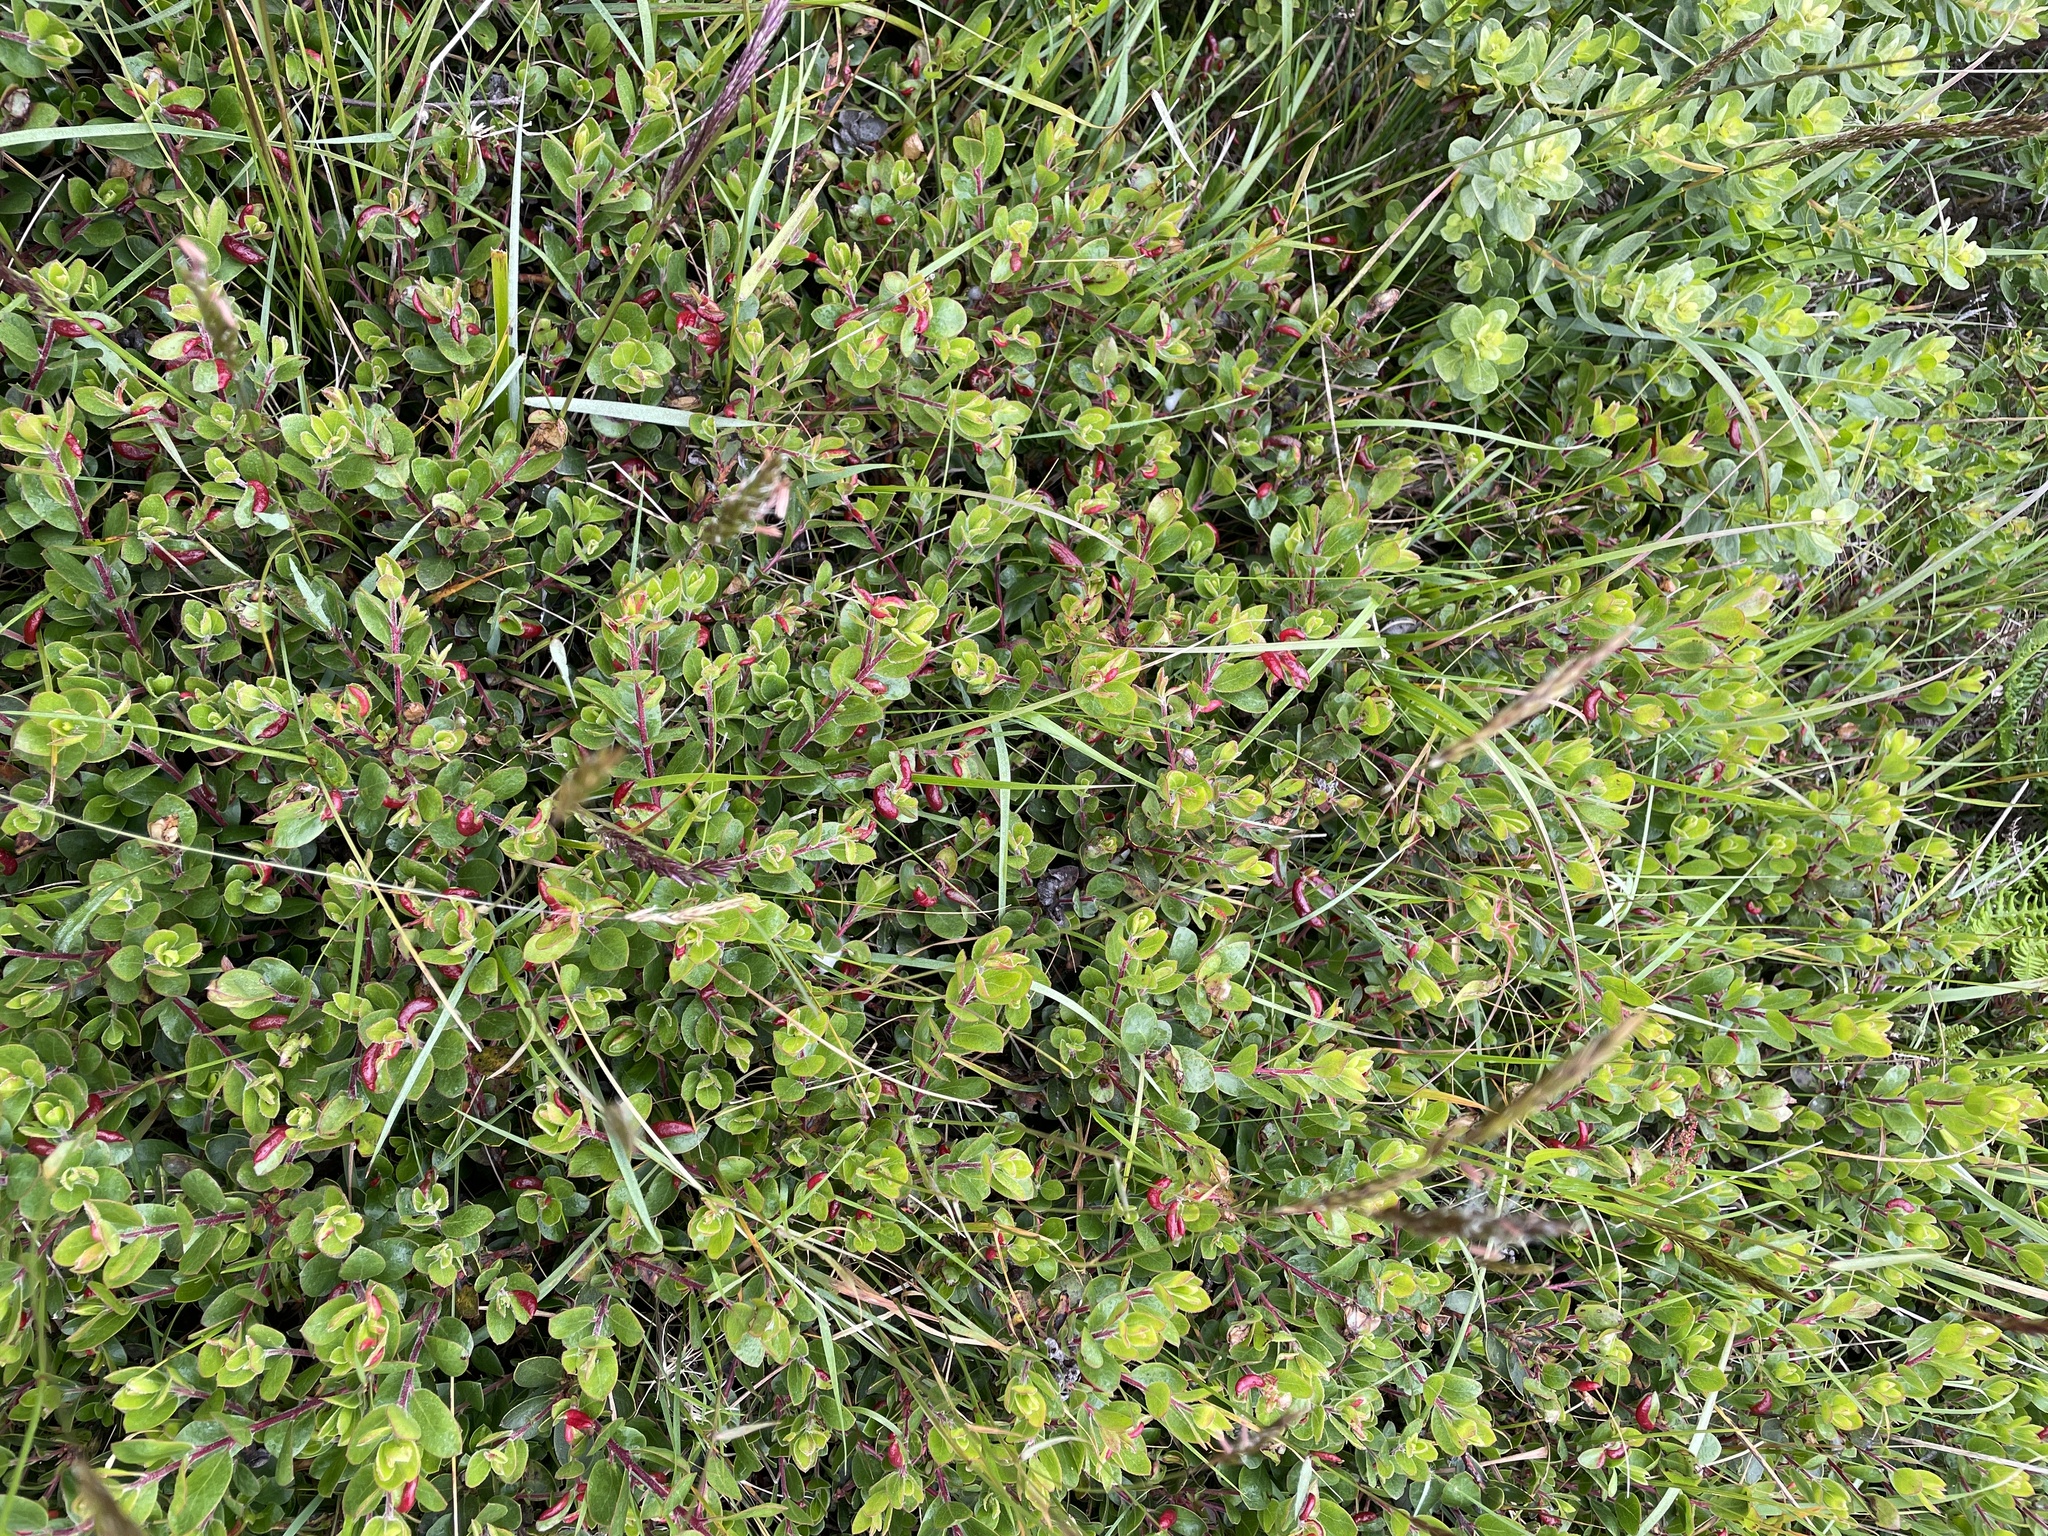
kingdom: Plantae
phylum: Tracheophyta
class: Magnoliopsida
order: Ericales
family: Ericaceae
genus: Arctostaphylos
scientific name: Arctostaphylos uva-ursi
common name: Bearberry
